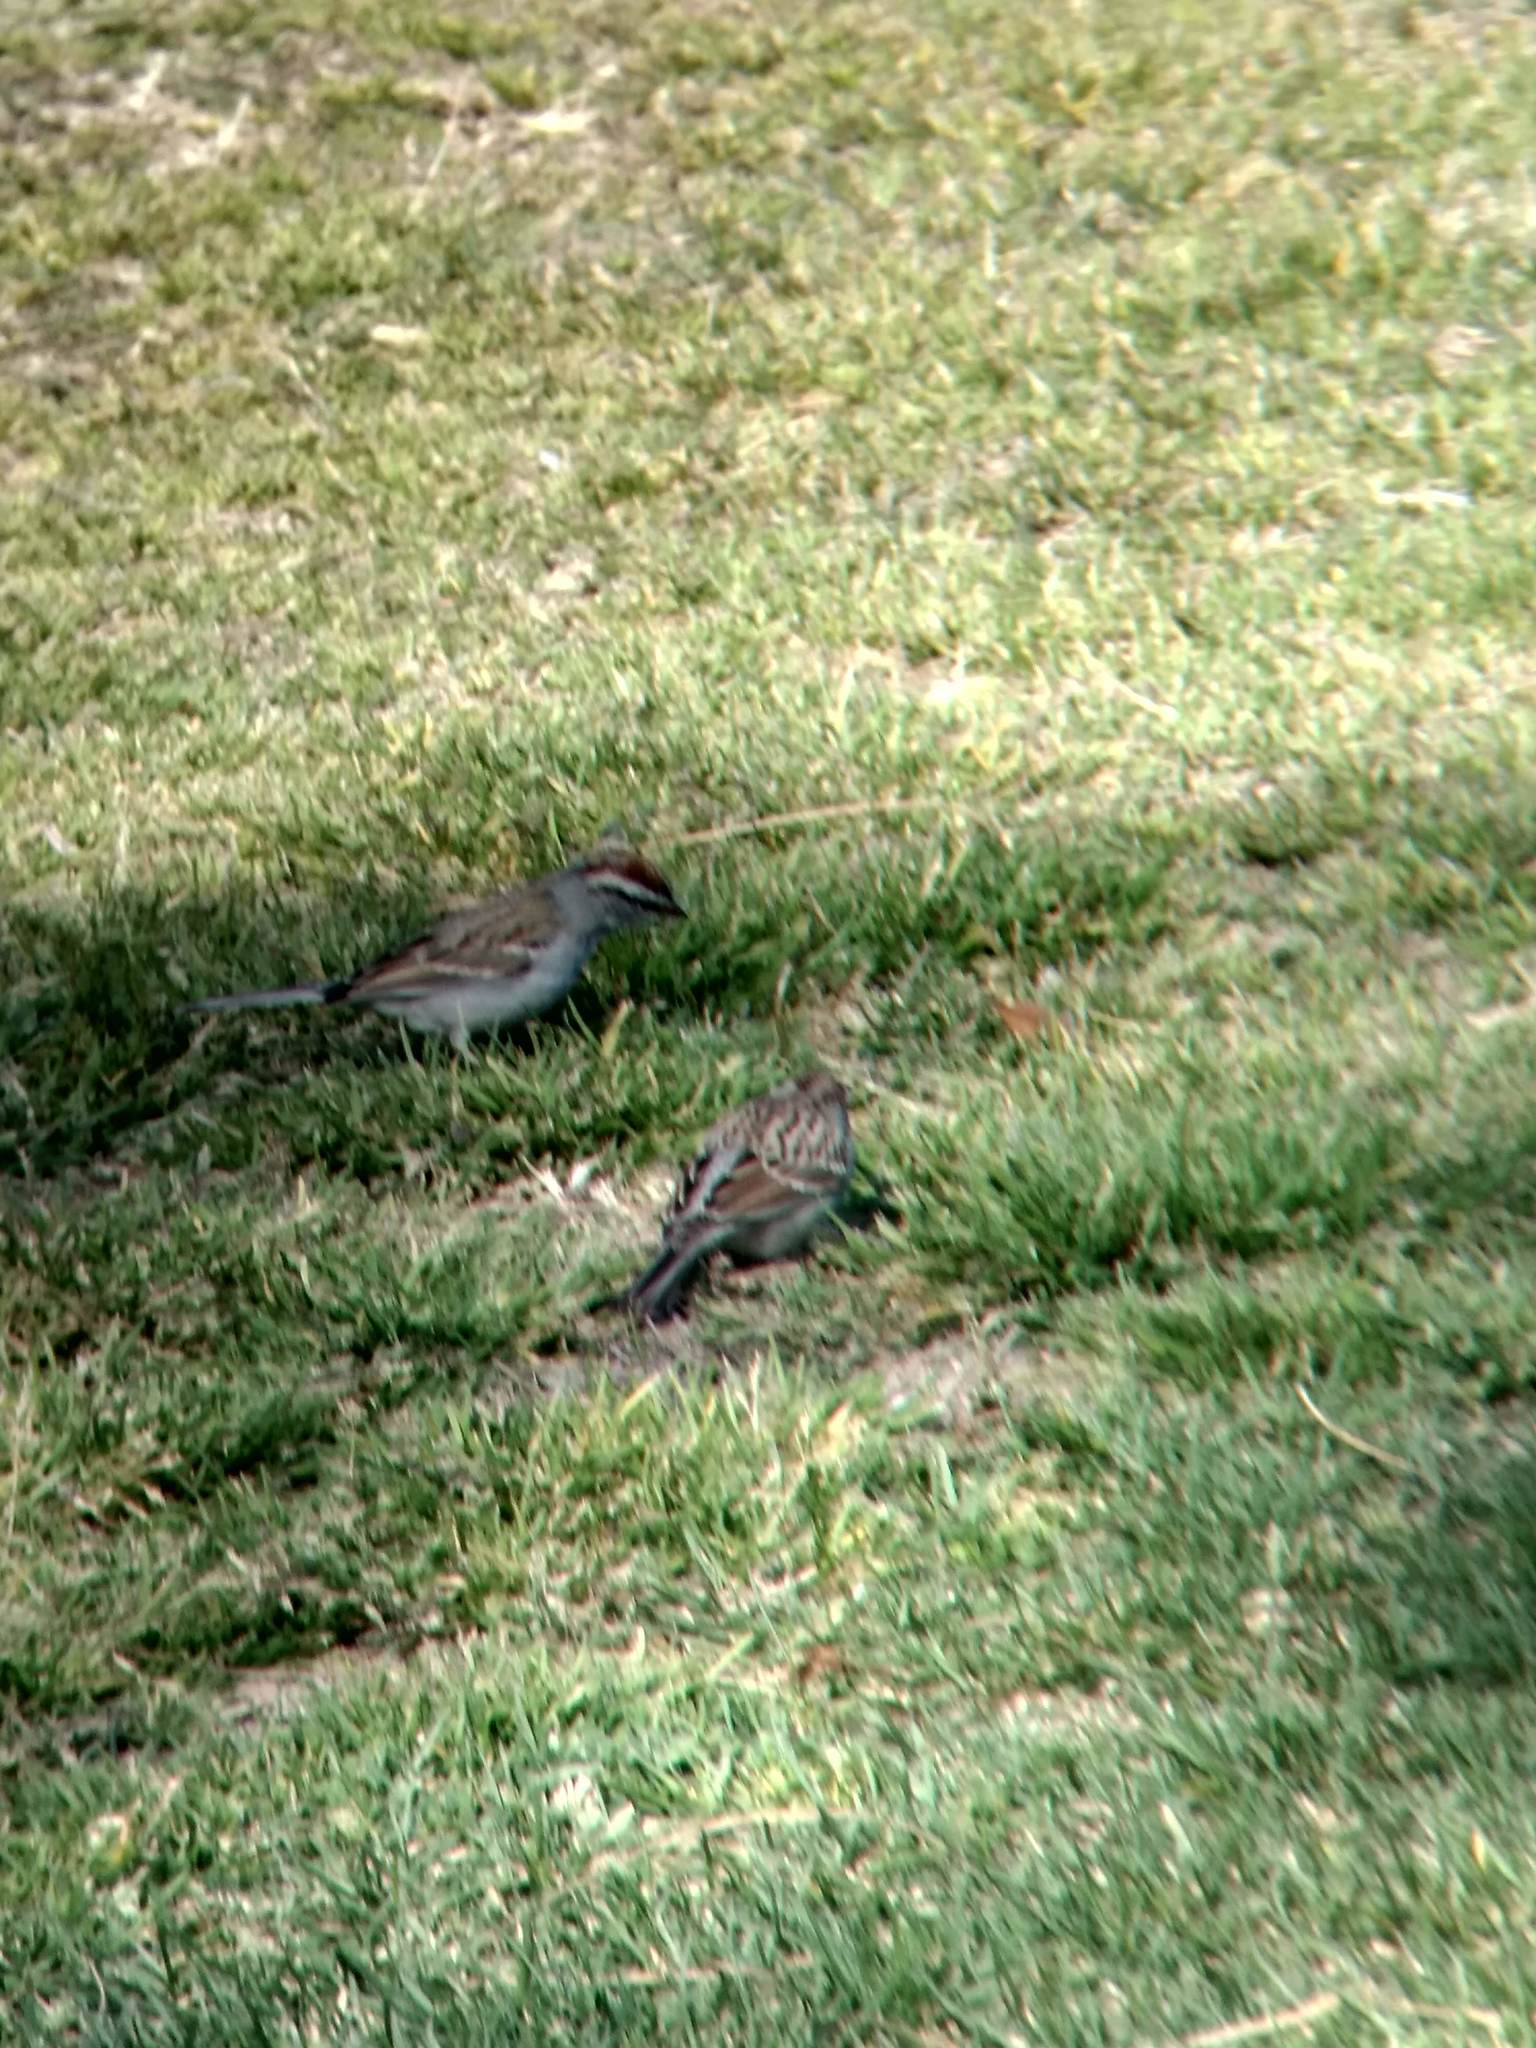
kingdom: Animalia
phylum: Chordata
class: Aves
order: Passeriformes
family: Passerellidae
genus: Spizella
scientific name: Spizella passerina
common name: Chipping sparrow
